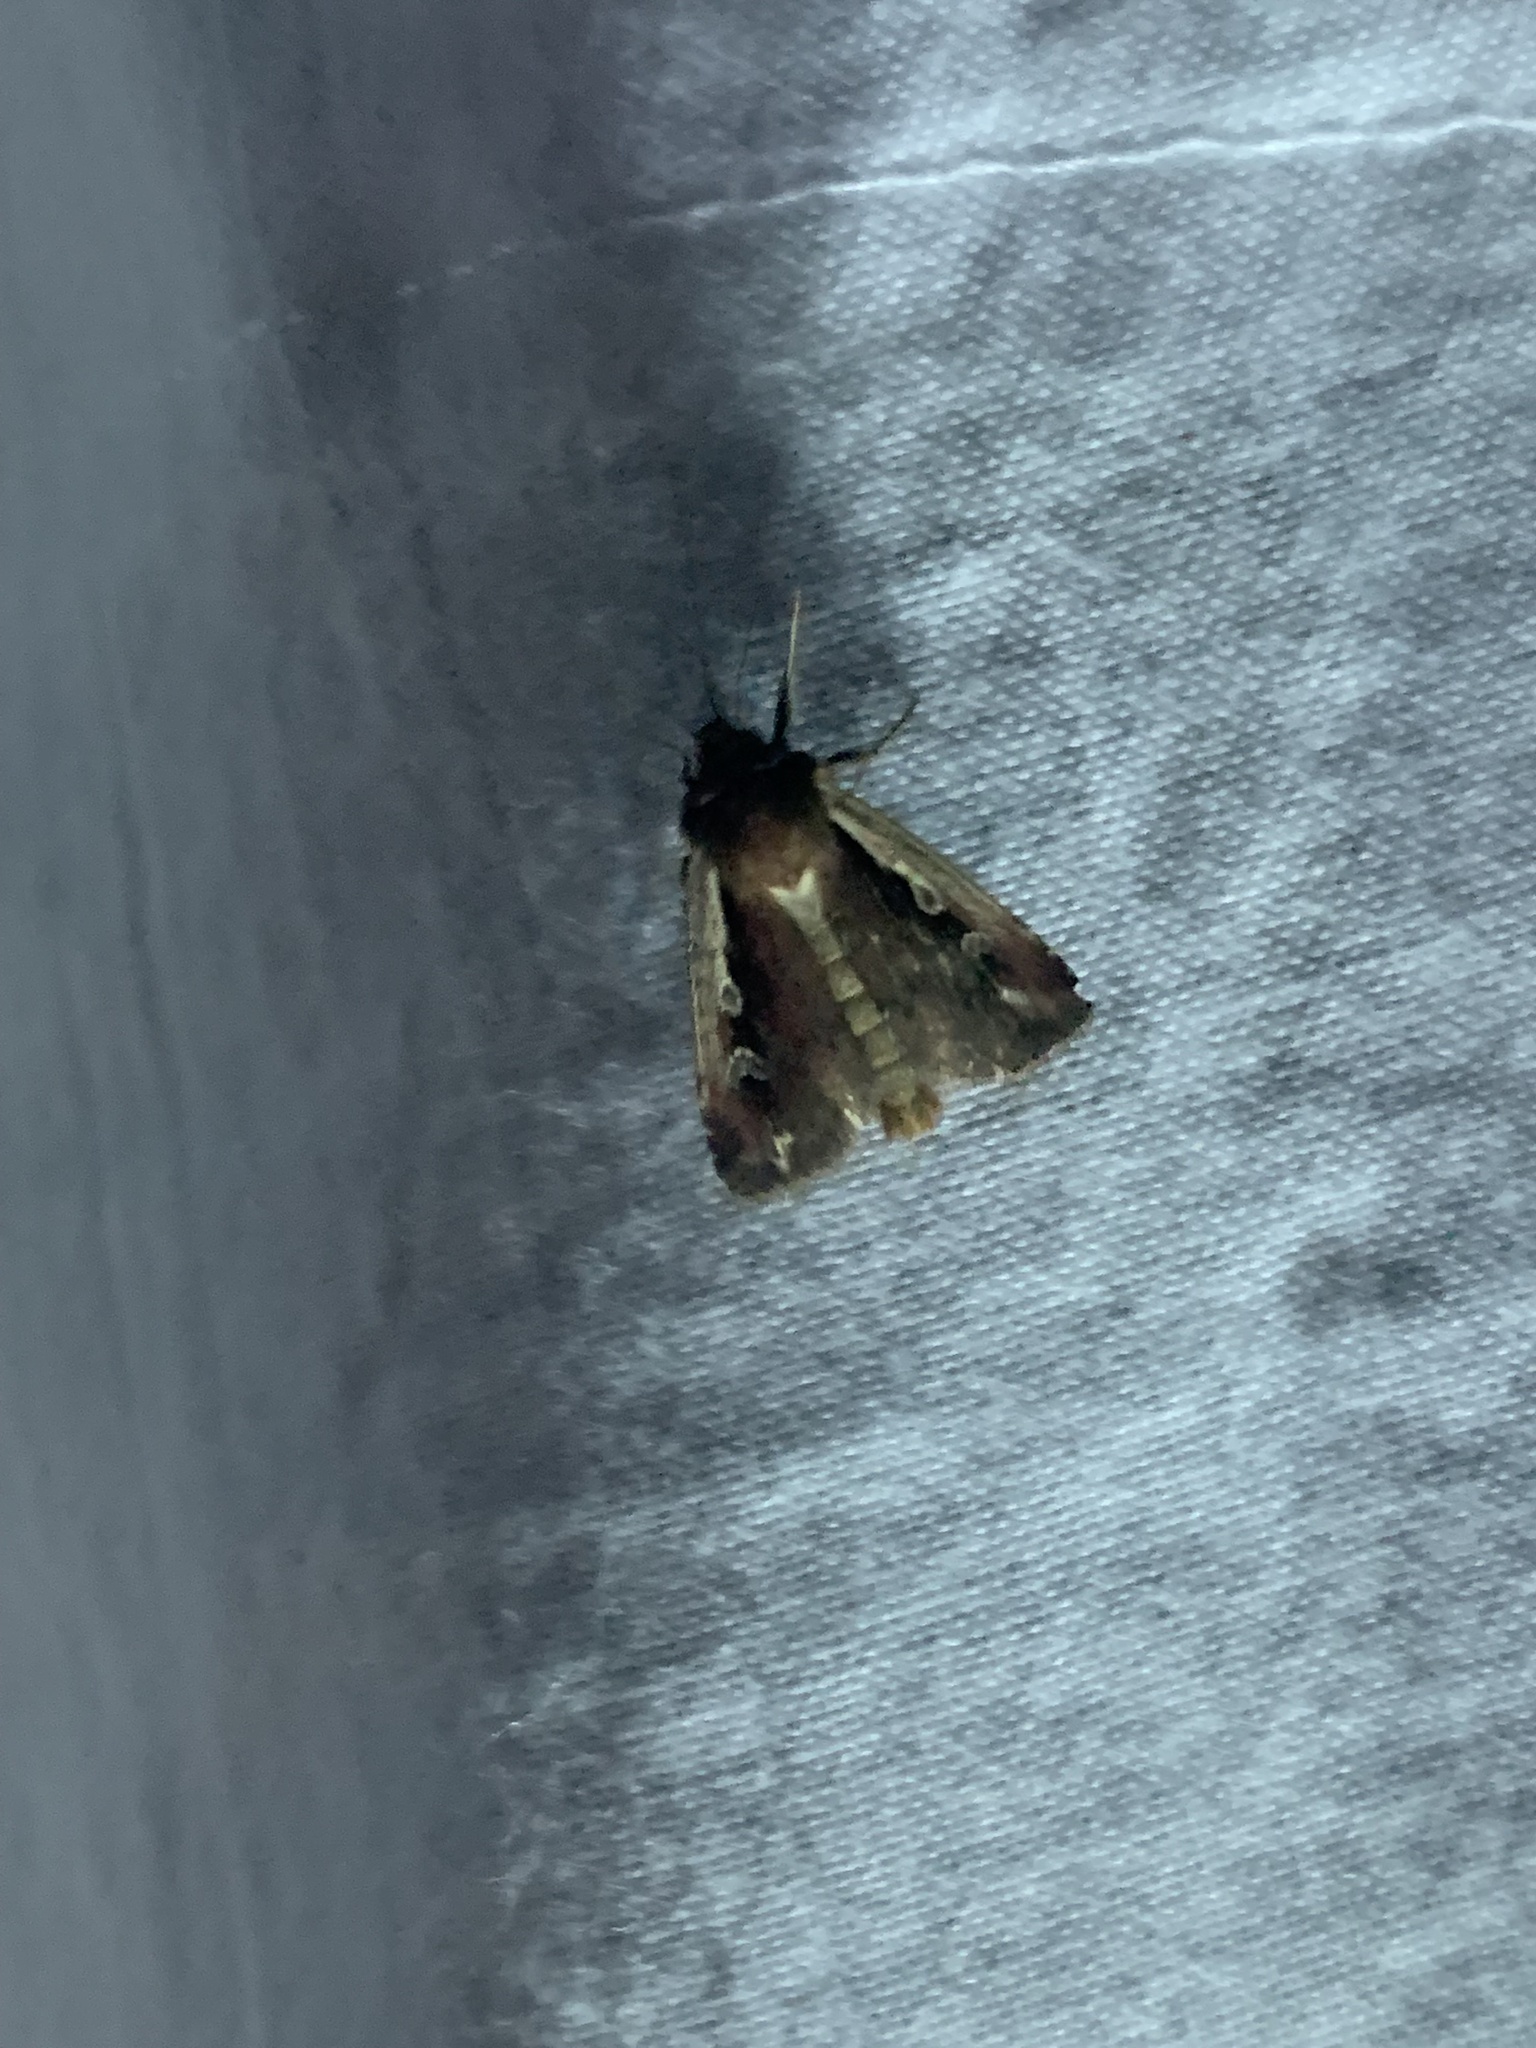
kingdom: Animalia
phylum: Arthropoda
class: Insecta
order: Lepidoptera
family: Noctuidae
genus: Ochropleura
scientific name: Ochropleura plecta
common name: Flame shoulder
